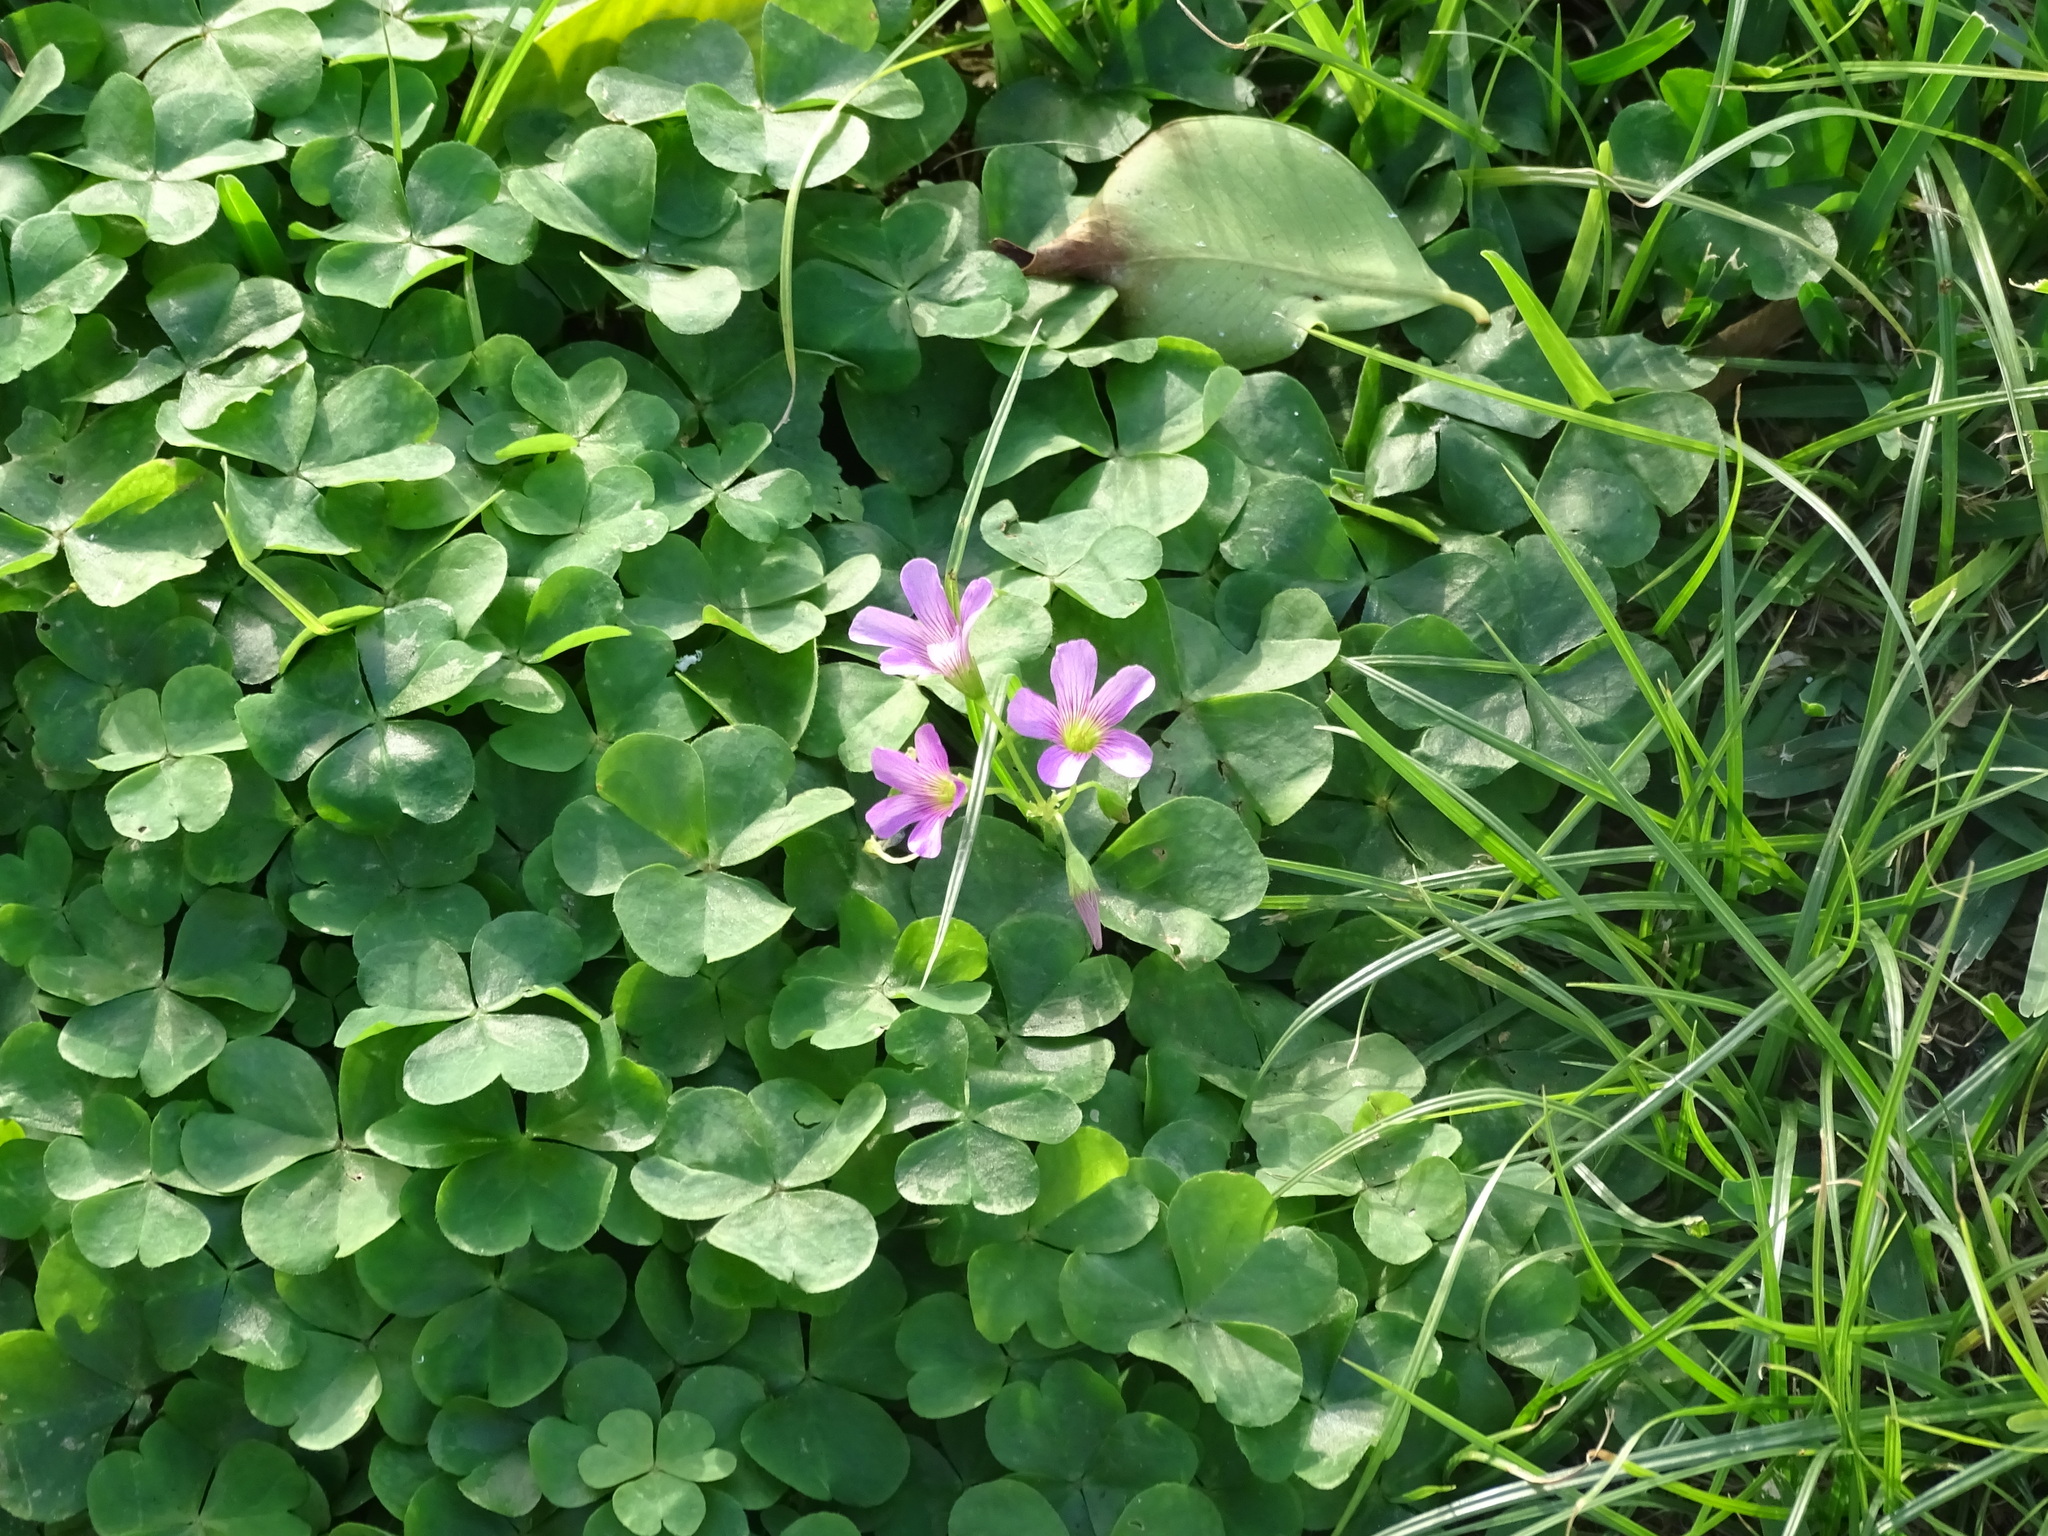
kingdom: Plantae
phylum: Tracheophyta
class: Magnoliopsida
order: Oxalidales
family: Oxalidaceae
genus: Oxalis
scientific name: Oxalis debilis
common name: Large-flowered pink-sorrel
